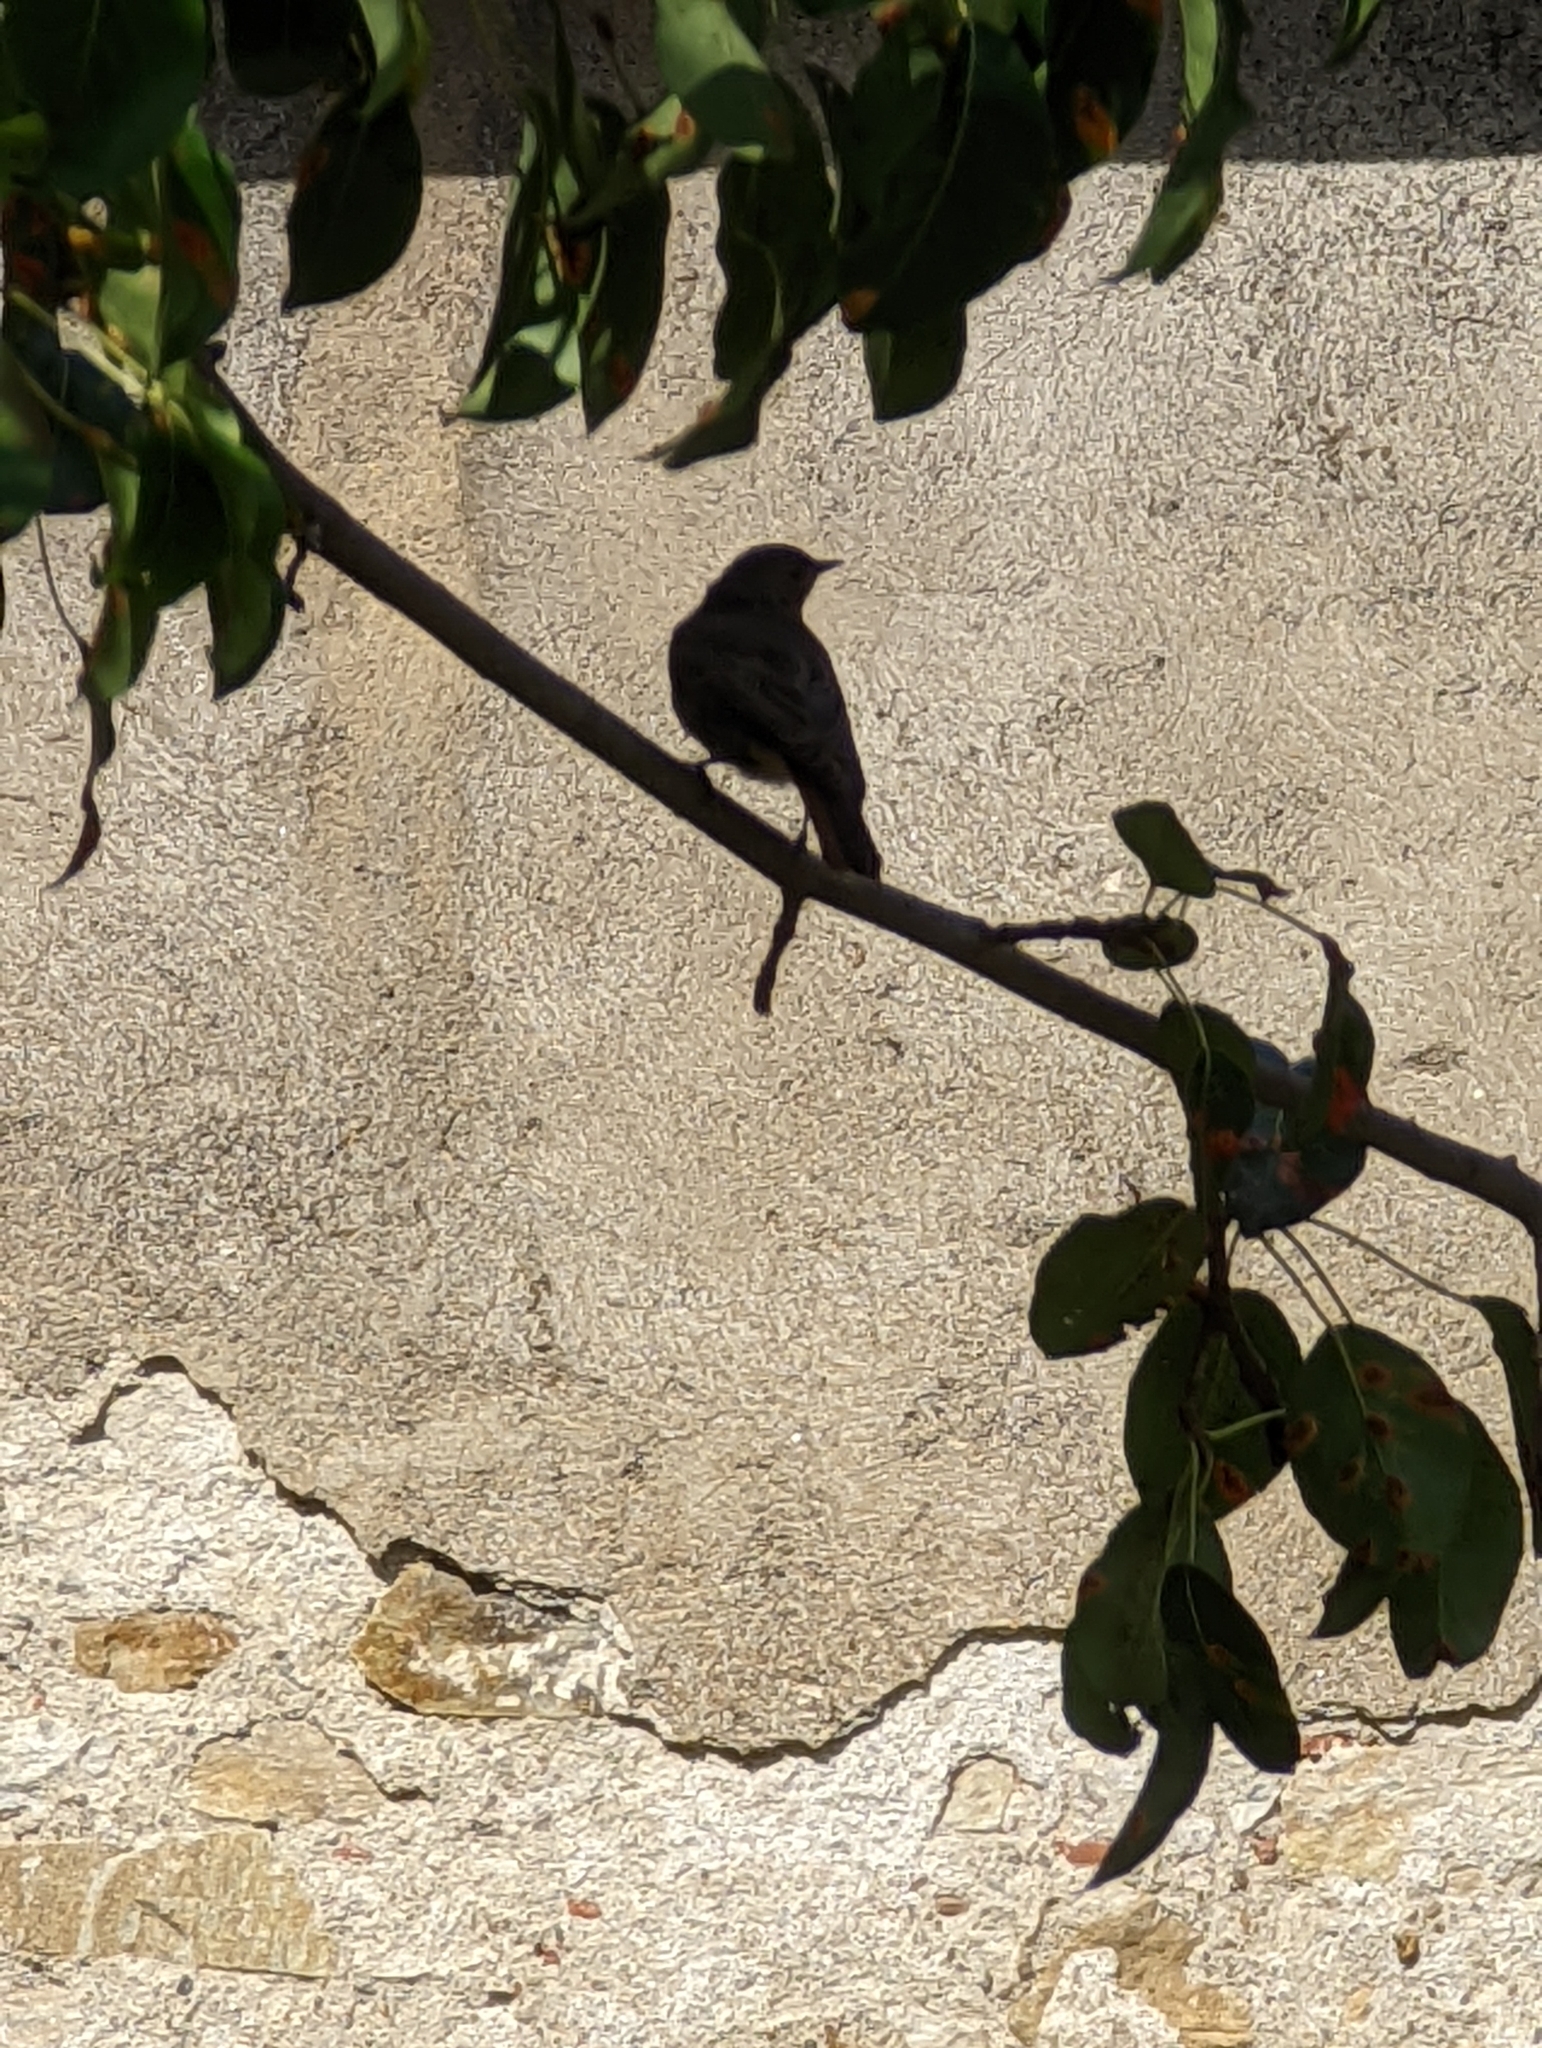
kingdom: Animalia
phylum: Chordata
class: Aves
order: Passeriformes
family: Muscicapidae
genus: Phoenicurus
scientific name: Phoenicurus ochruros
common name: Black redstart
